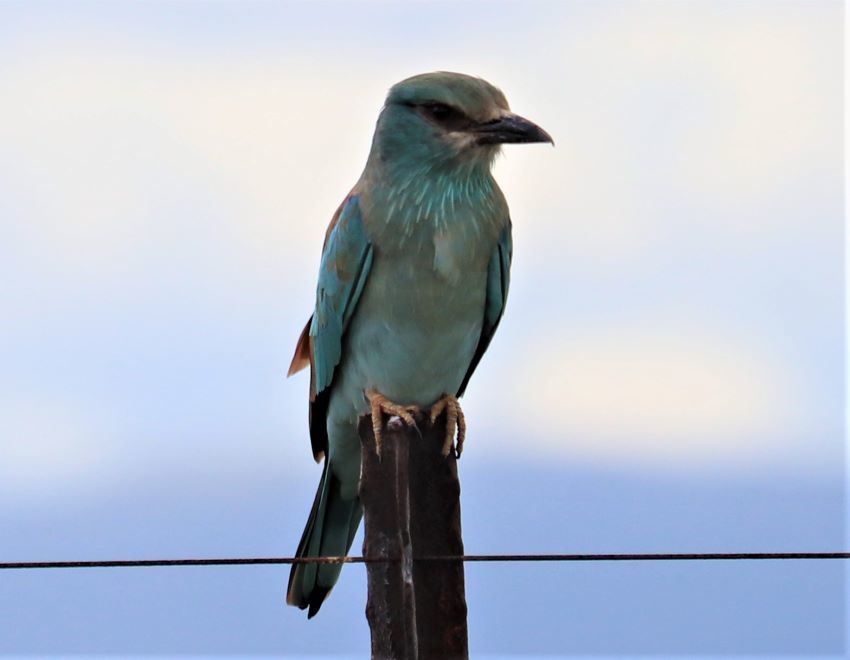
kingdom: Animalia
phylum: Chordata
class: Aves
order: Coraciiformes
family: Coraciidae
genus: Coracias
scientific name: Coracias garrulus
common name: European roller
